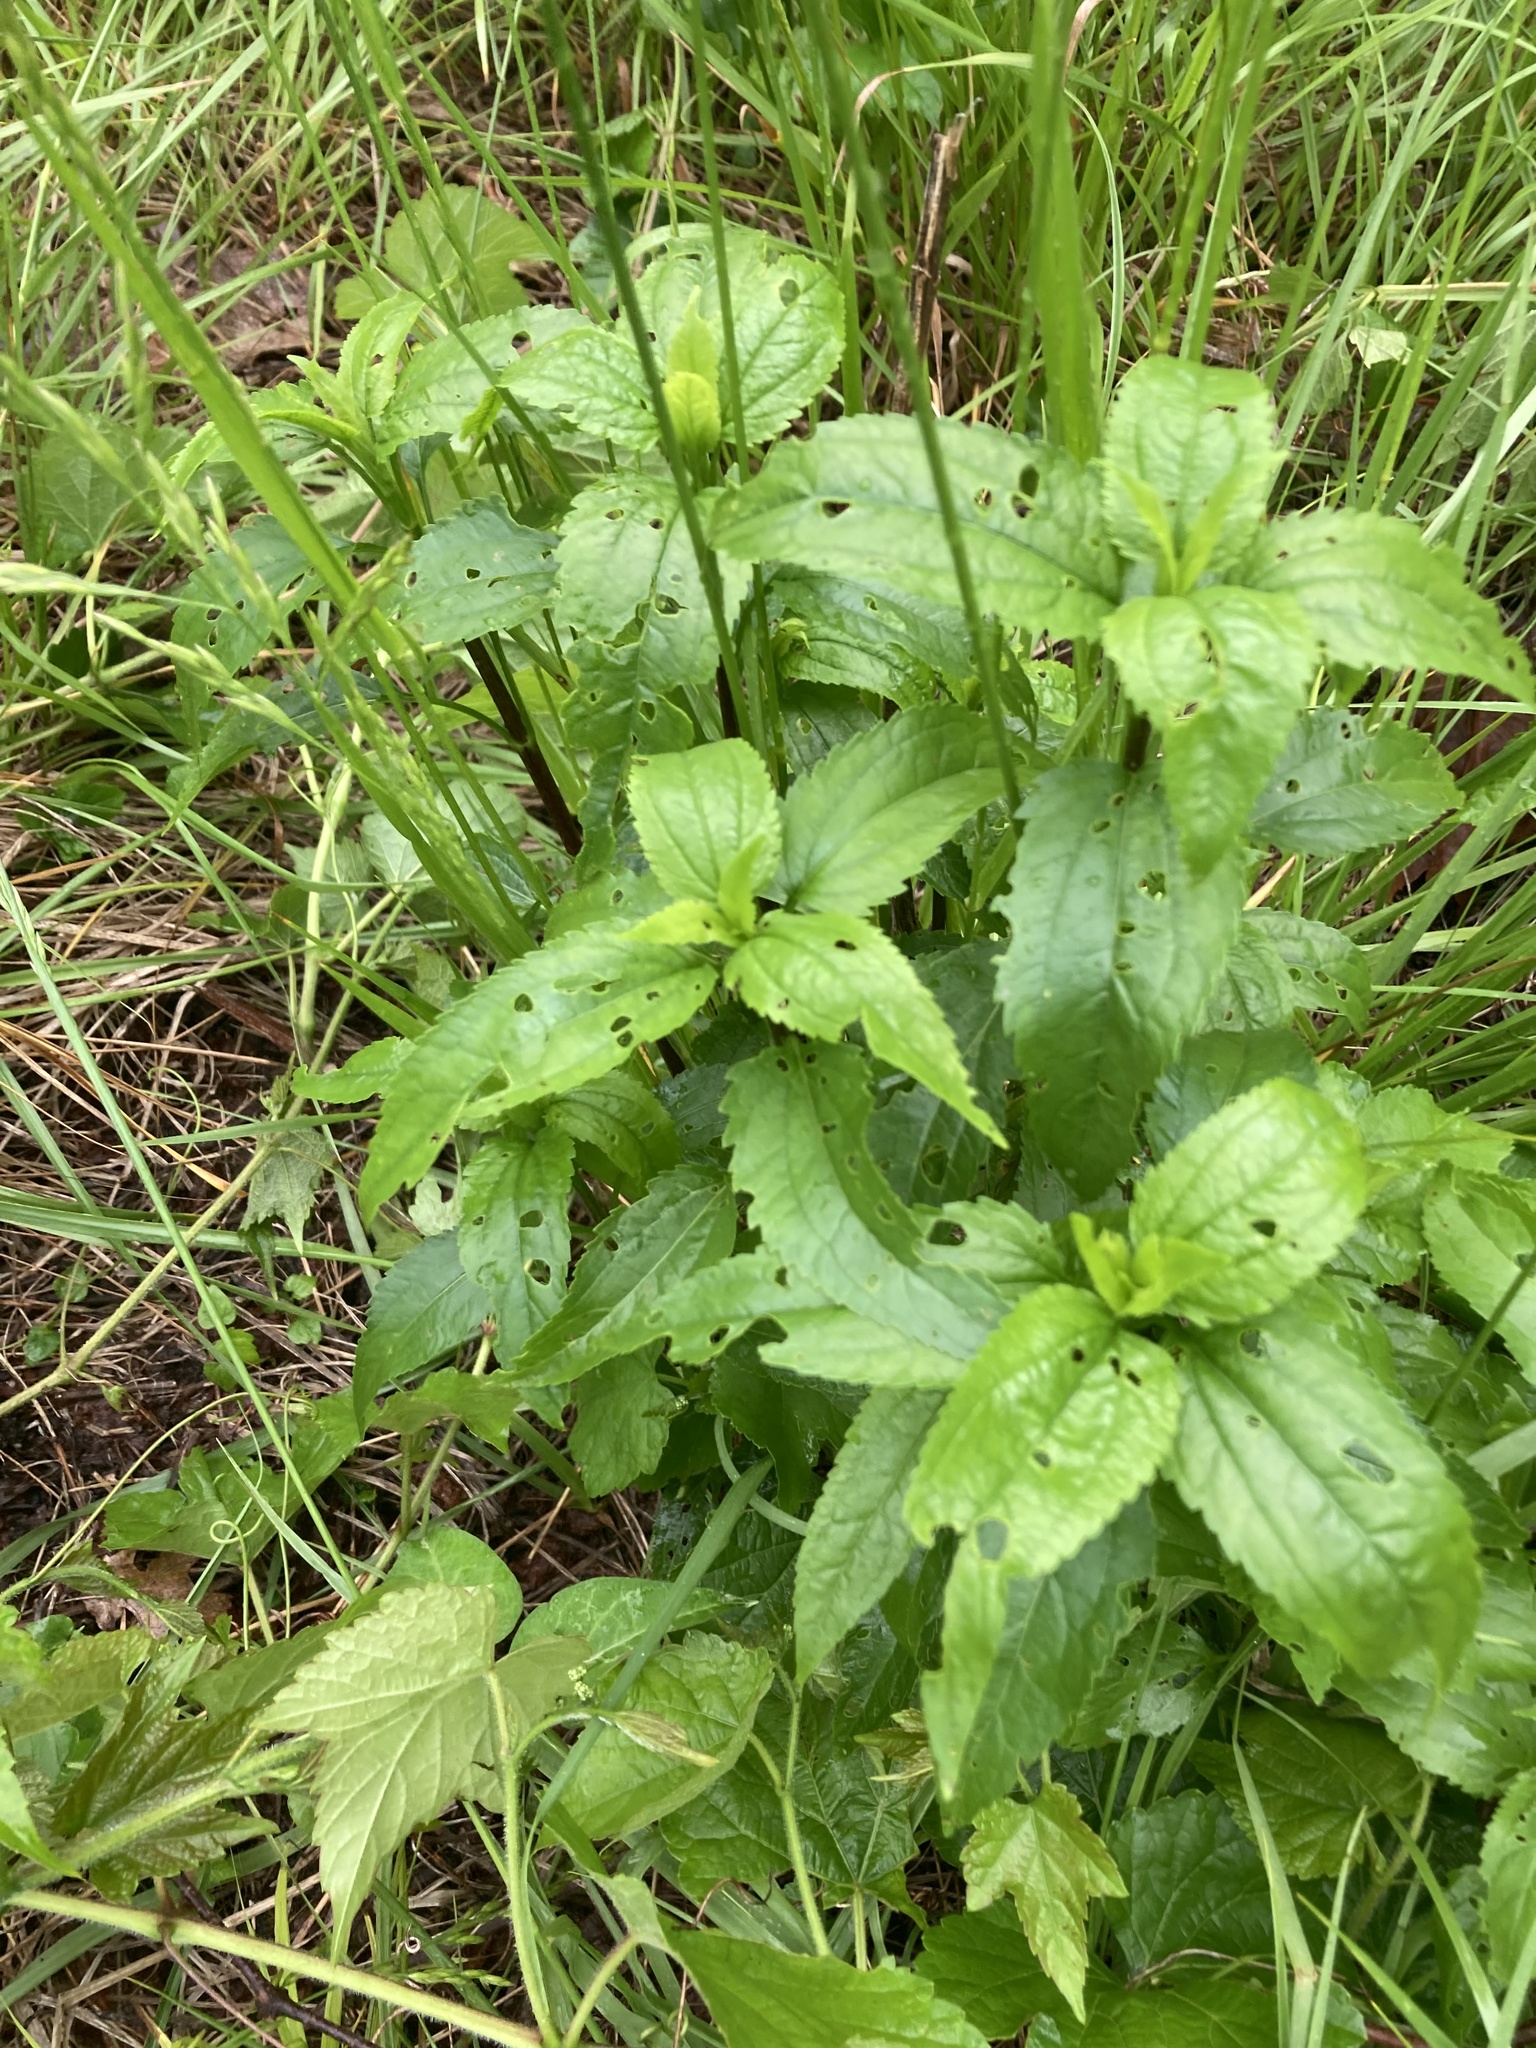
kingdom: Plantae
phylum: Tracheophyta
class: Magnoliopsida
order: Asterales
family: Asteraceae
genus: Eupatorium
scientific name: Eupatorium serotinum
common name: Late boneset
